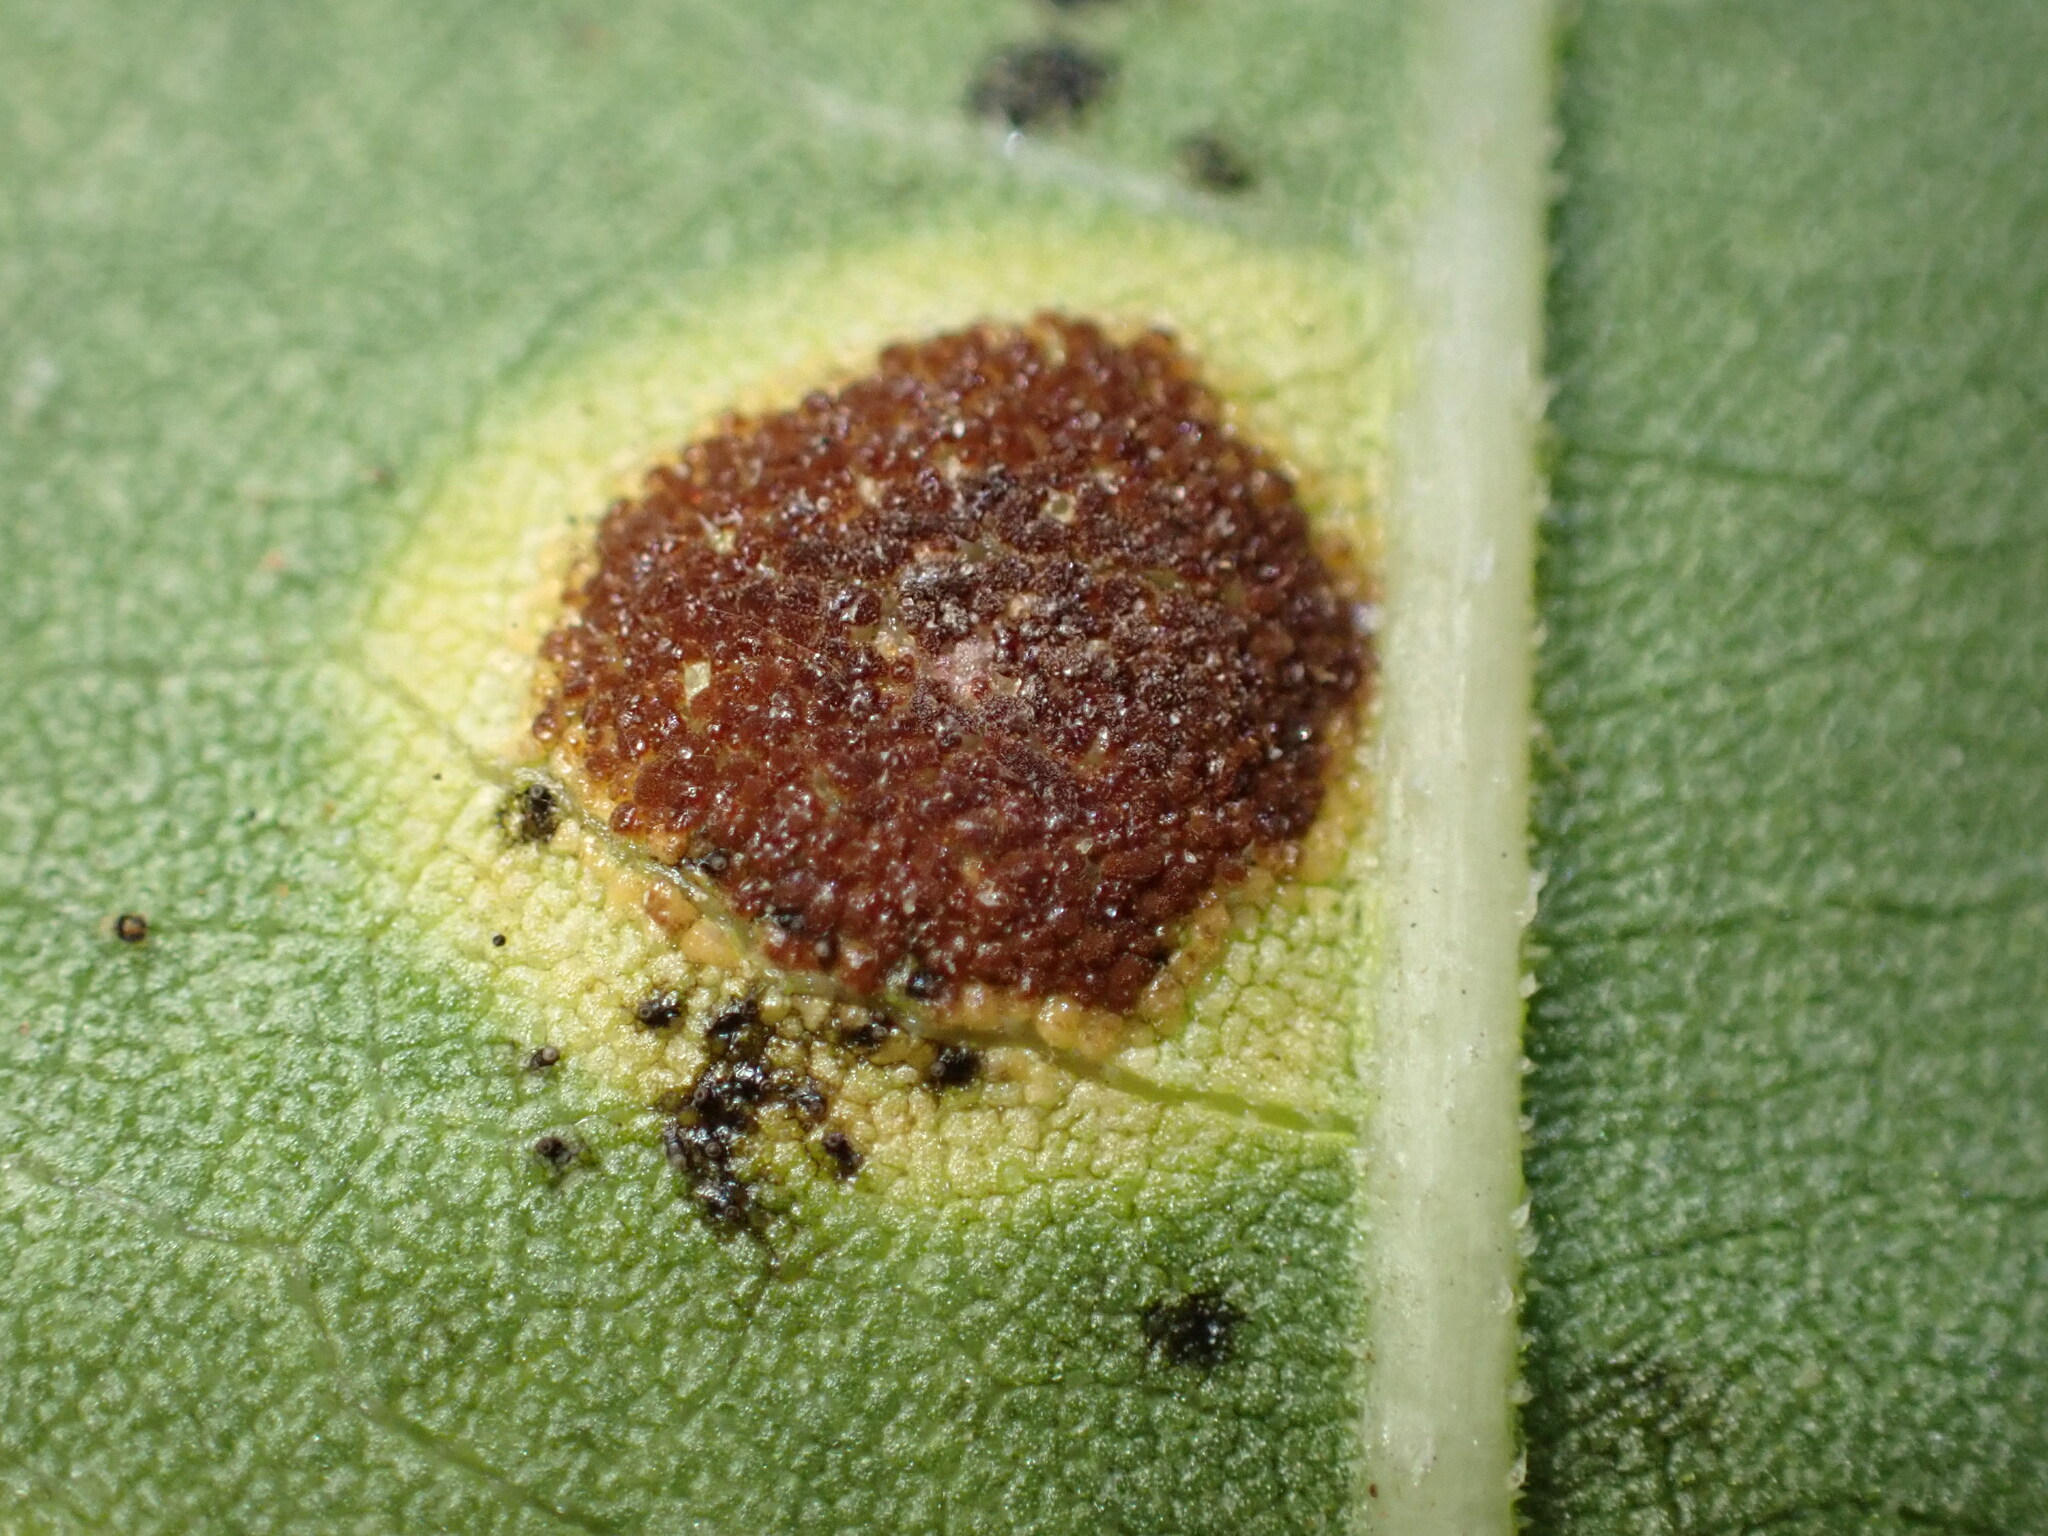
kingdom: Fungi
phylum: Basidiomycota
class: Pucciniomycetes
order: Pucciniales
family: Pucciniaceae
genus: Puccinia
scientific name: Puccinia xanthii
